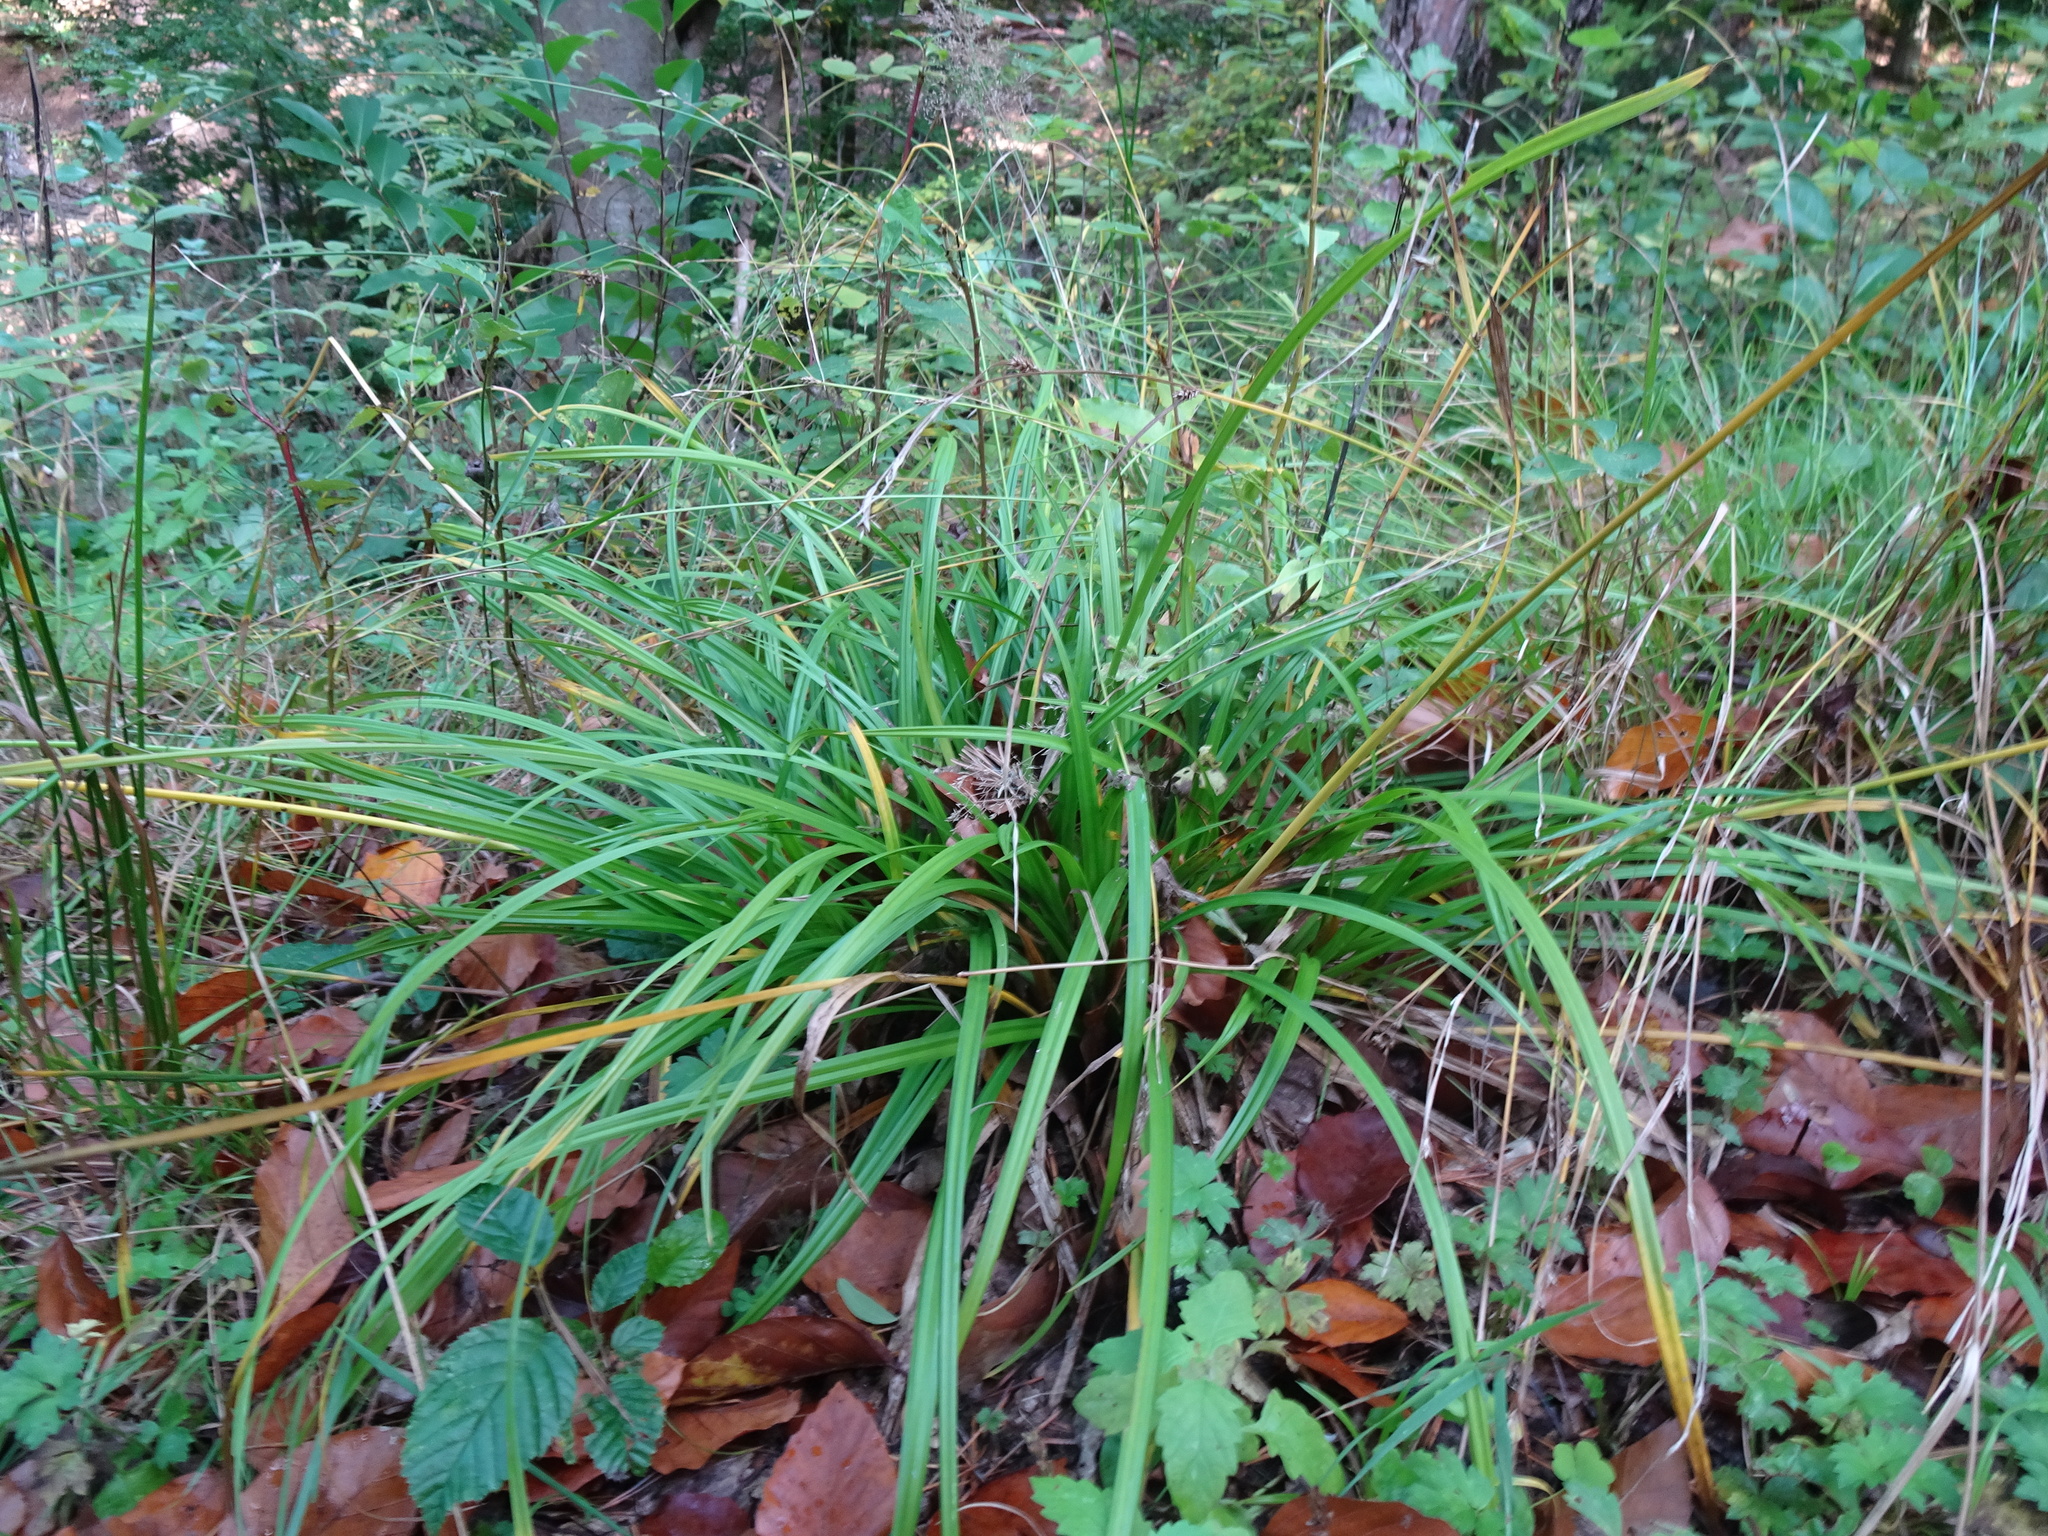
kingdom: Plantae
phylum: Tracheophyta
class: Liliopsida
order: Poales
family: Cyperaceae
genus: Carex
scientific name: Carex sylvatica
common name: Wood-sedge
